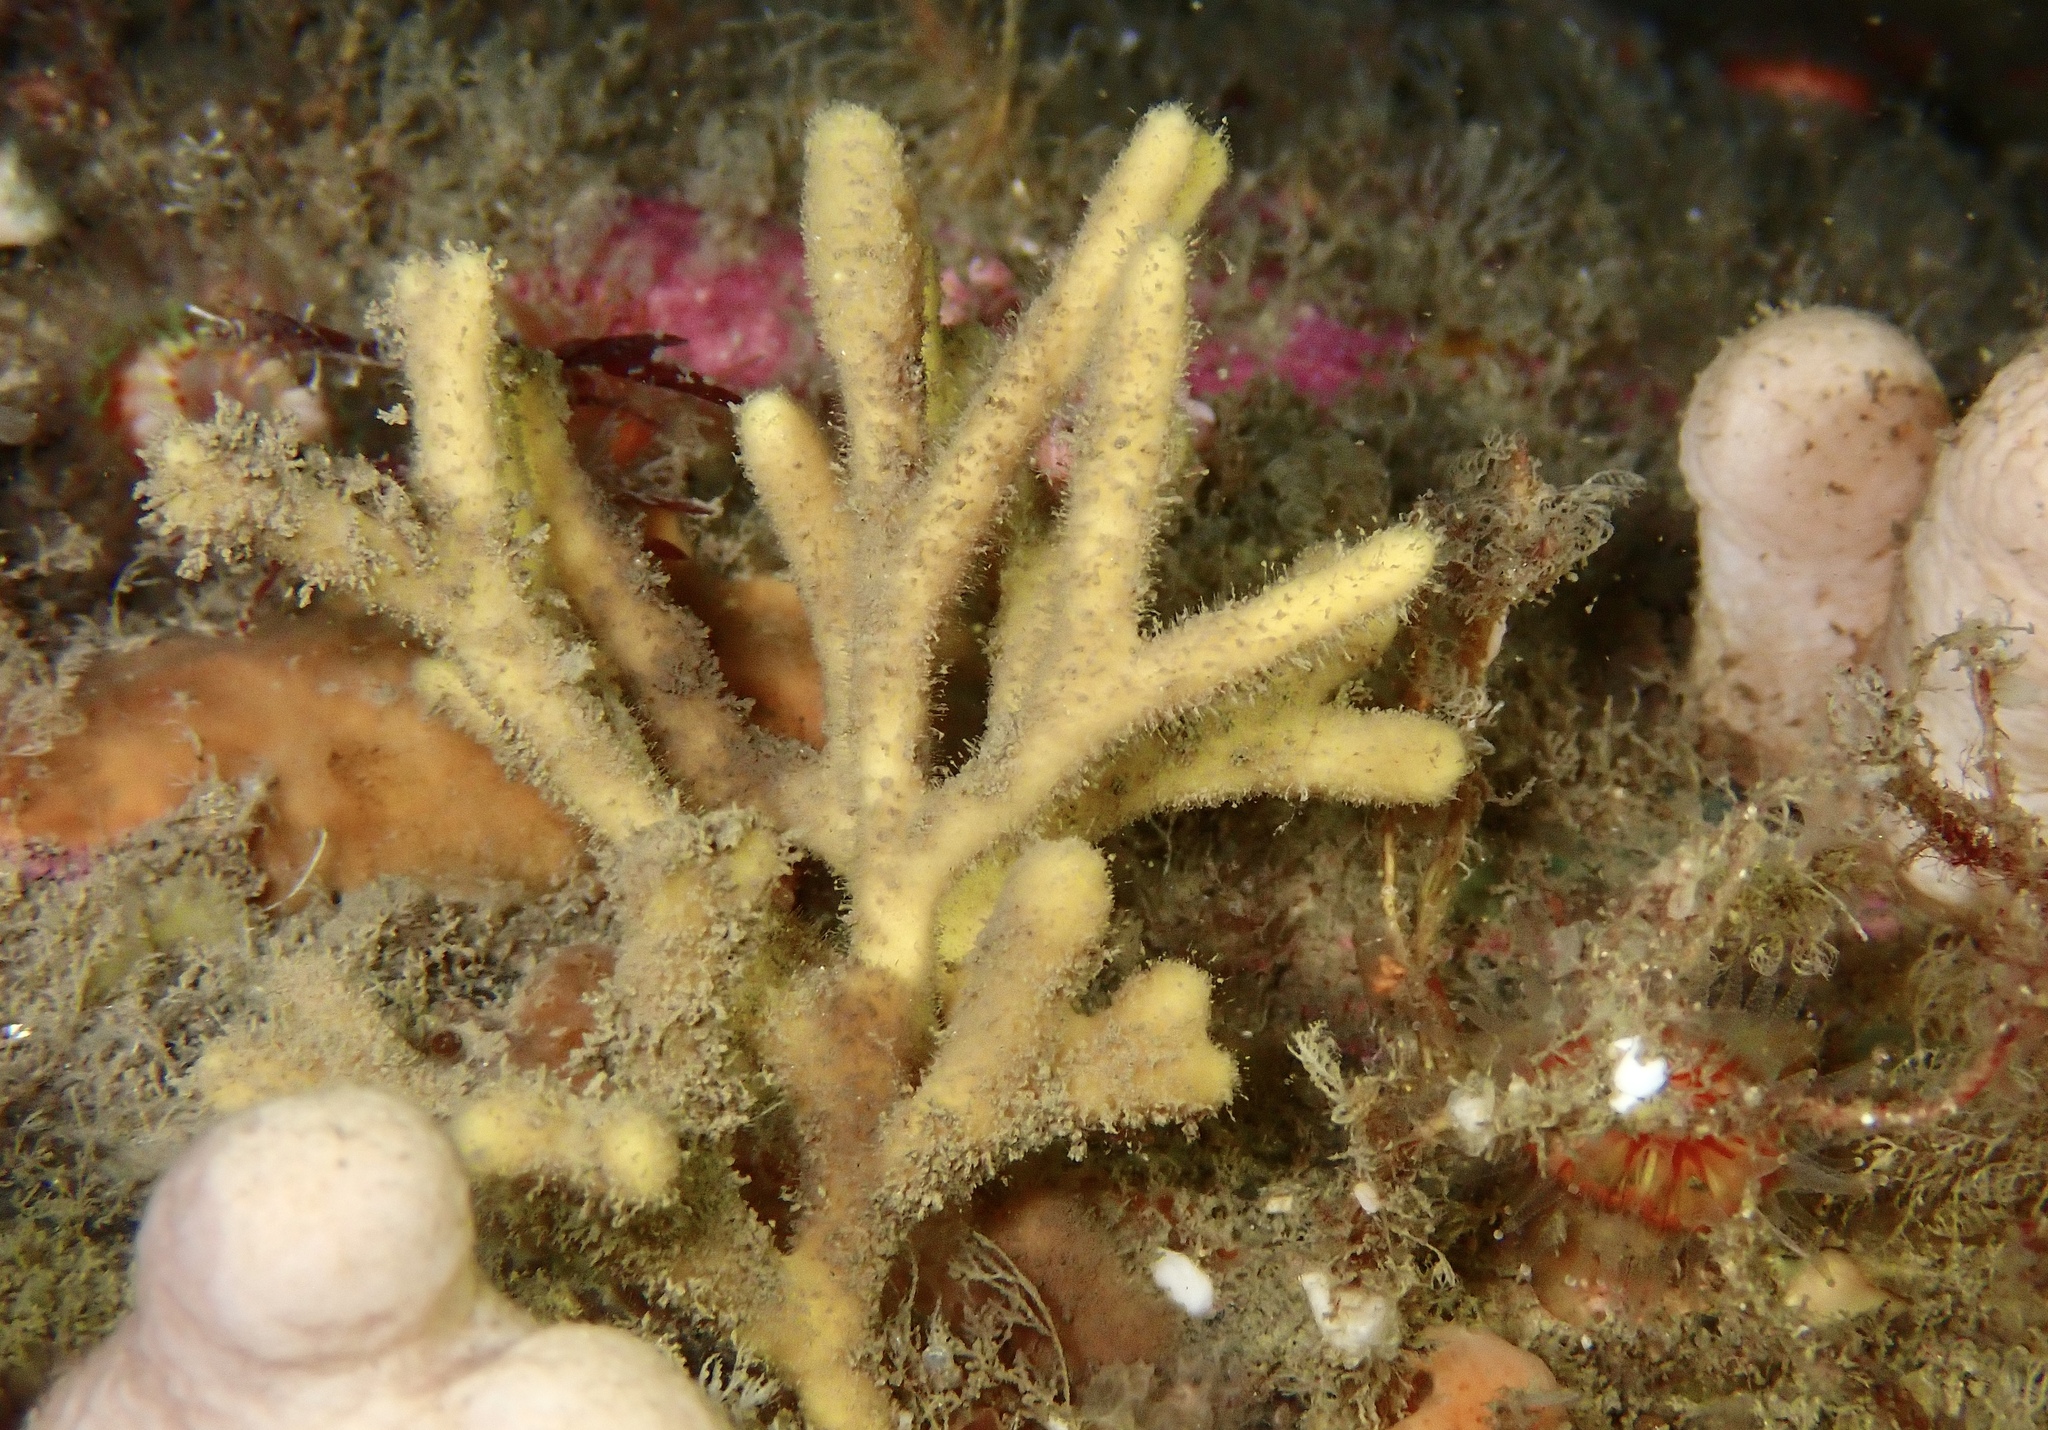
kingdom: Animalia
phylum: Porifera
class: Demospongiae
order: Axinellida
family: Stelligeridae
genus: Stelligera
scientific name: Stelligera stuposa
